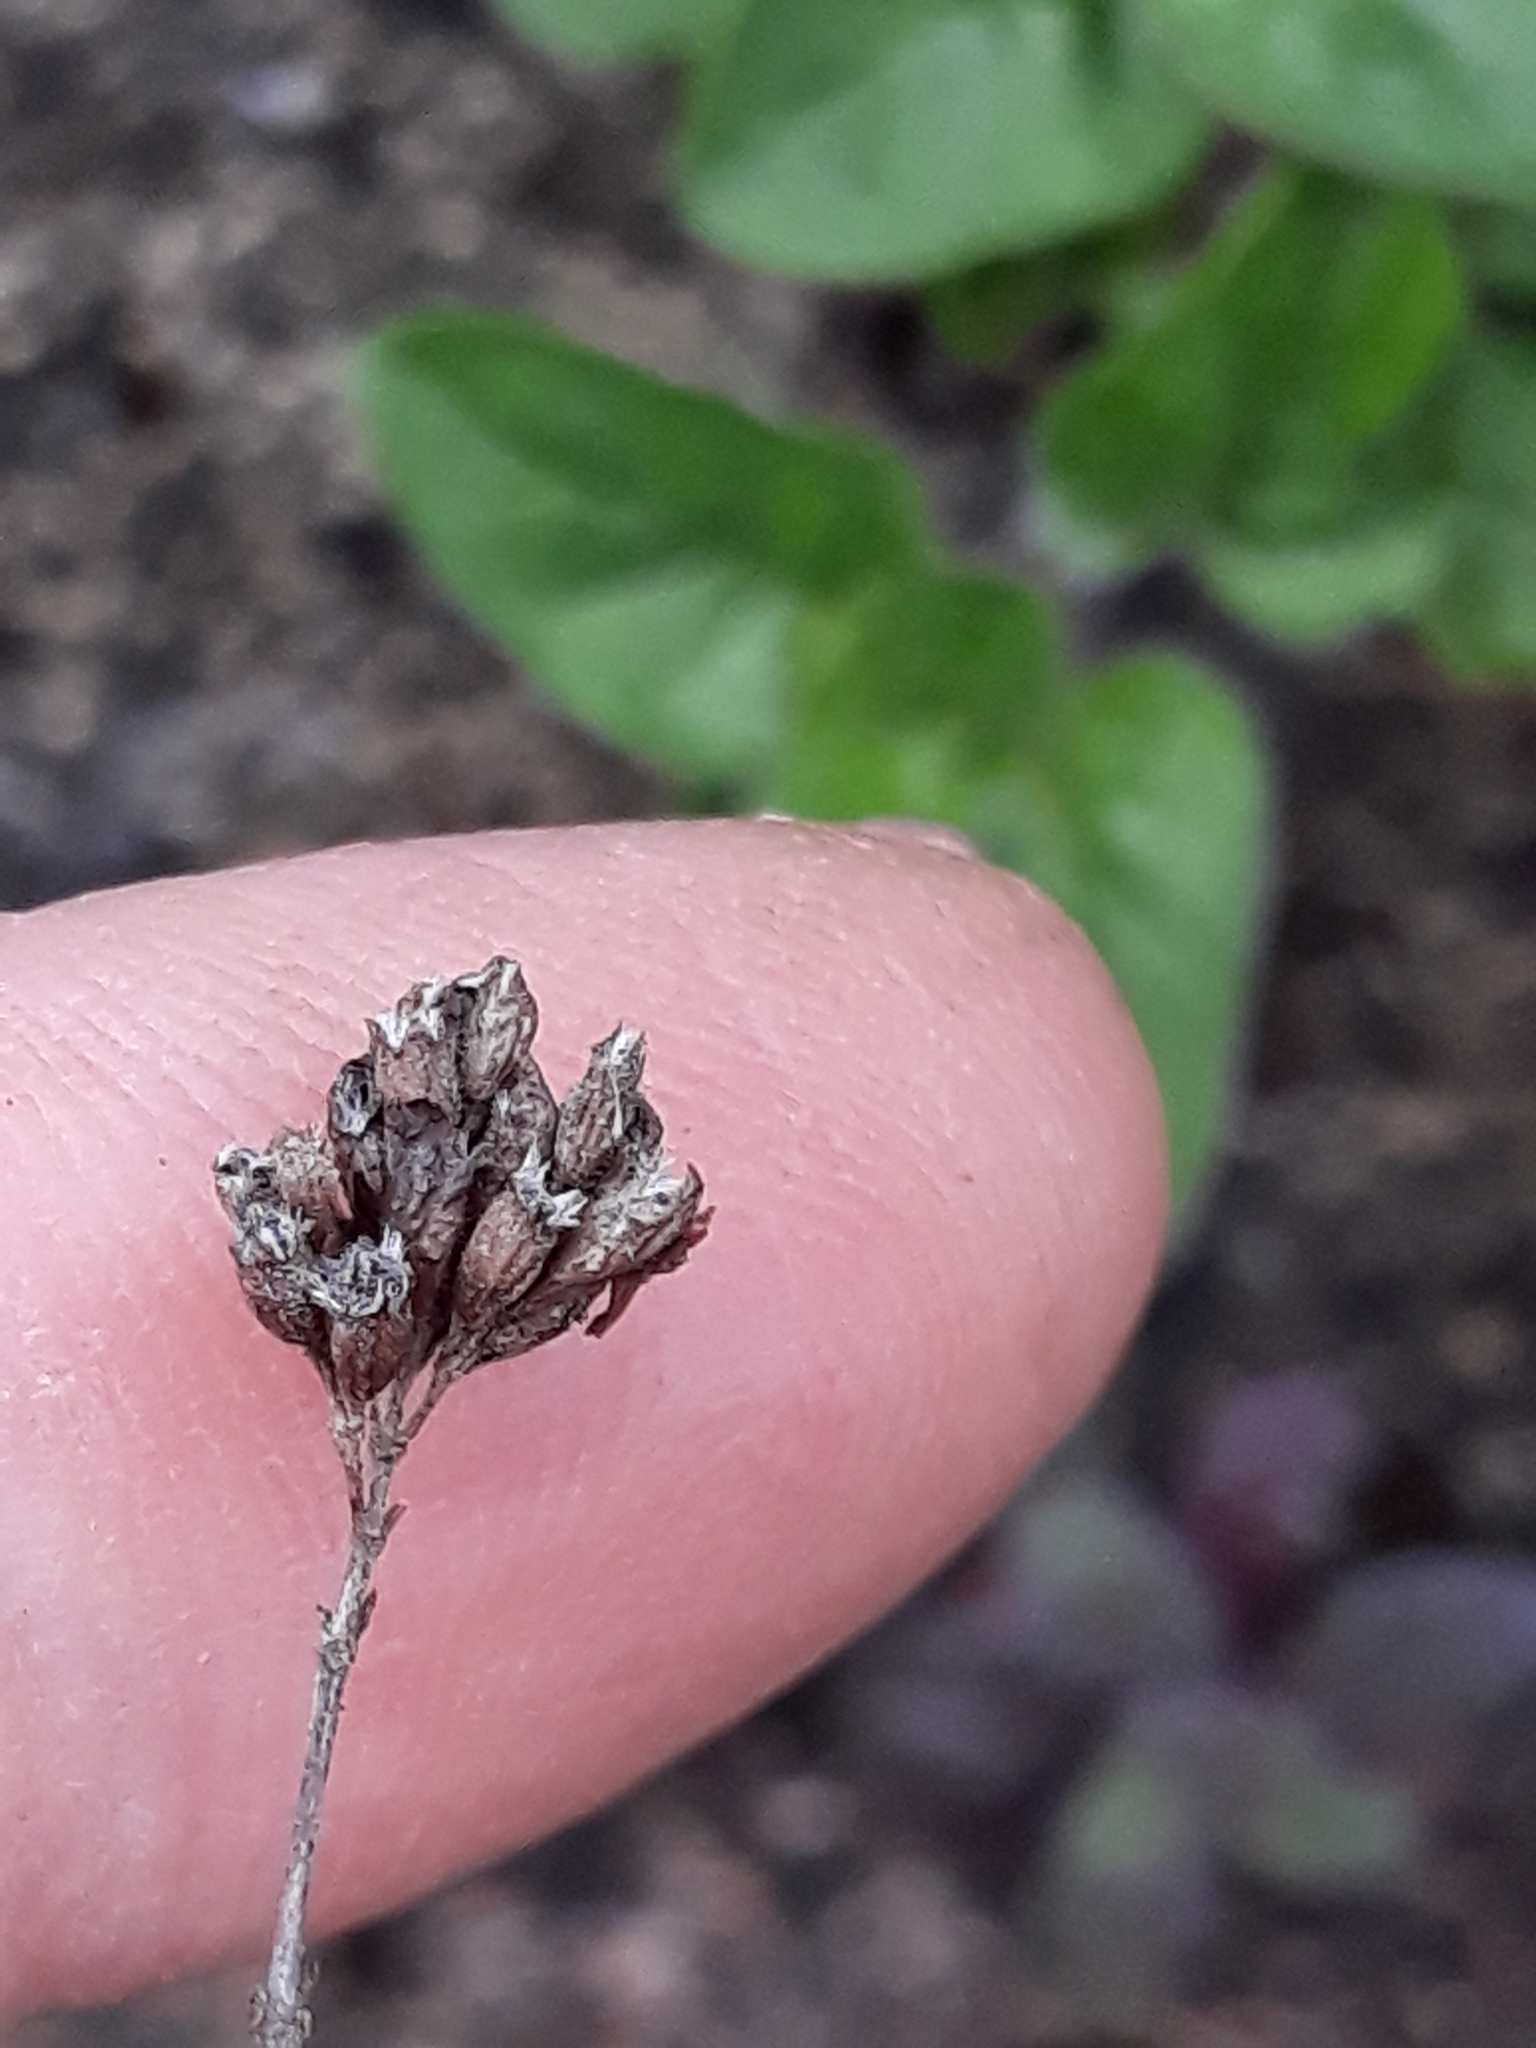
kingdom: Plantae
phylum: Tracheophyta
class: Magnoliopsida
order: Lamiales
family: Lamiaceae
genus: Origanum
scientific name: Origanum vulgare
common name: Wild marjoram
